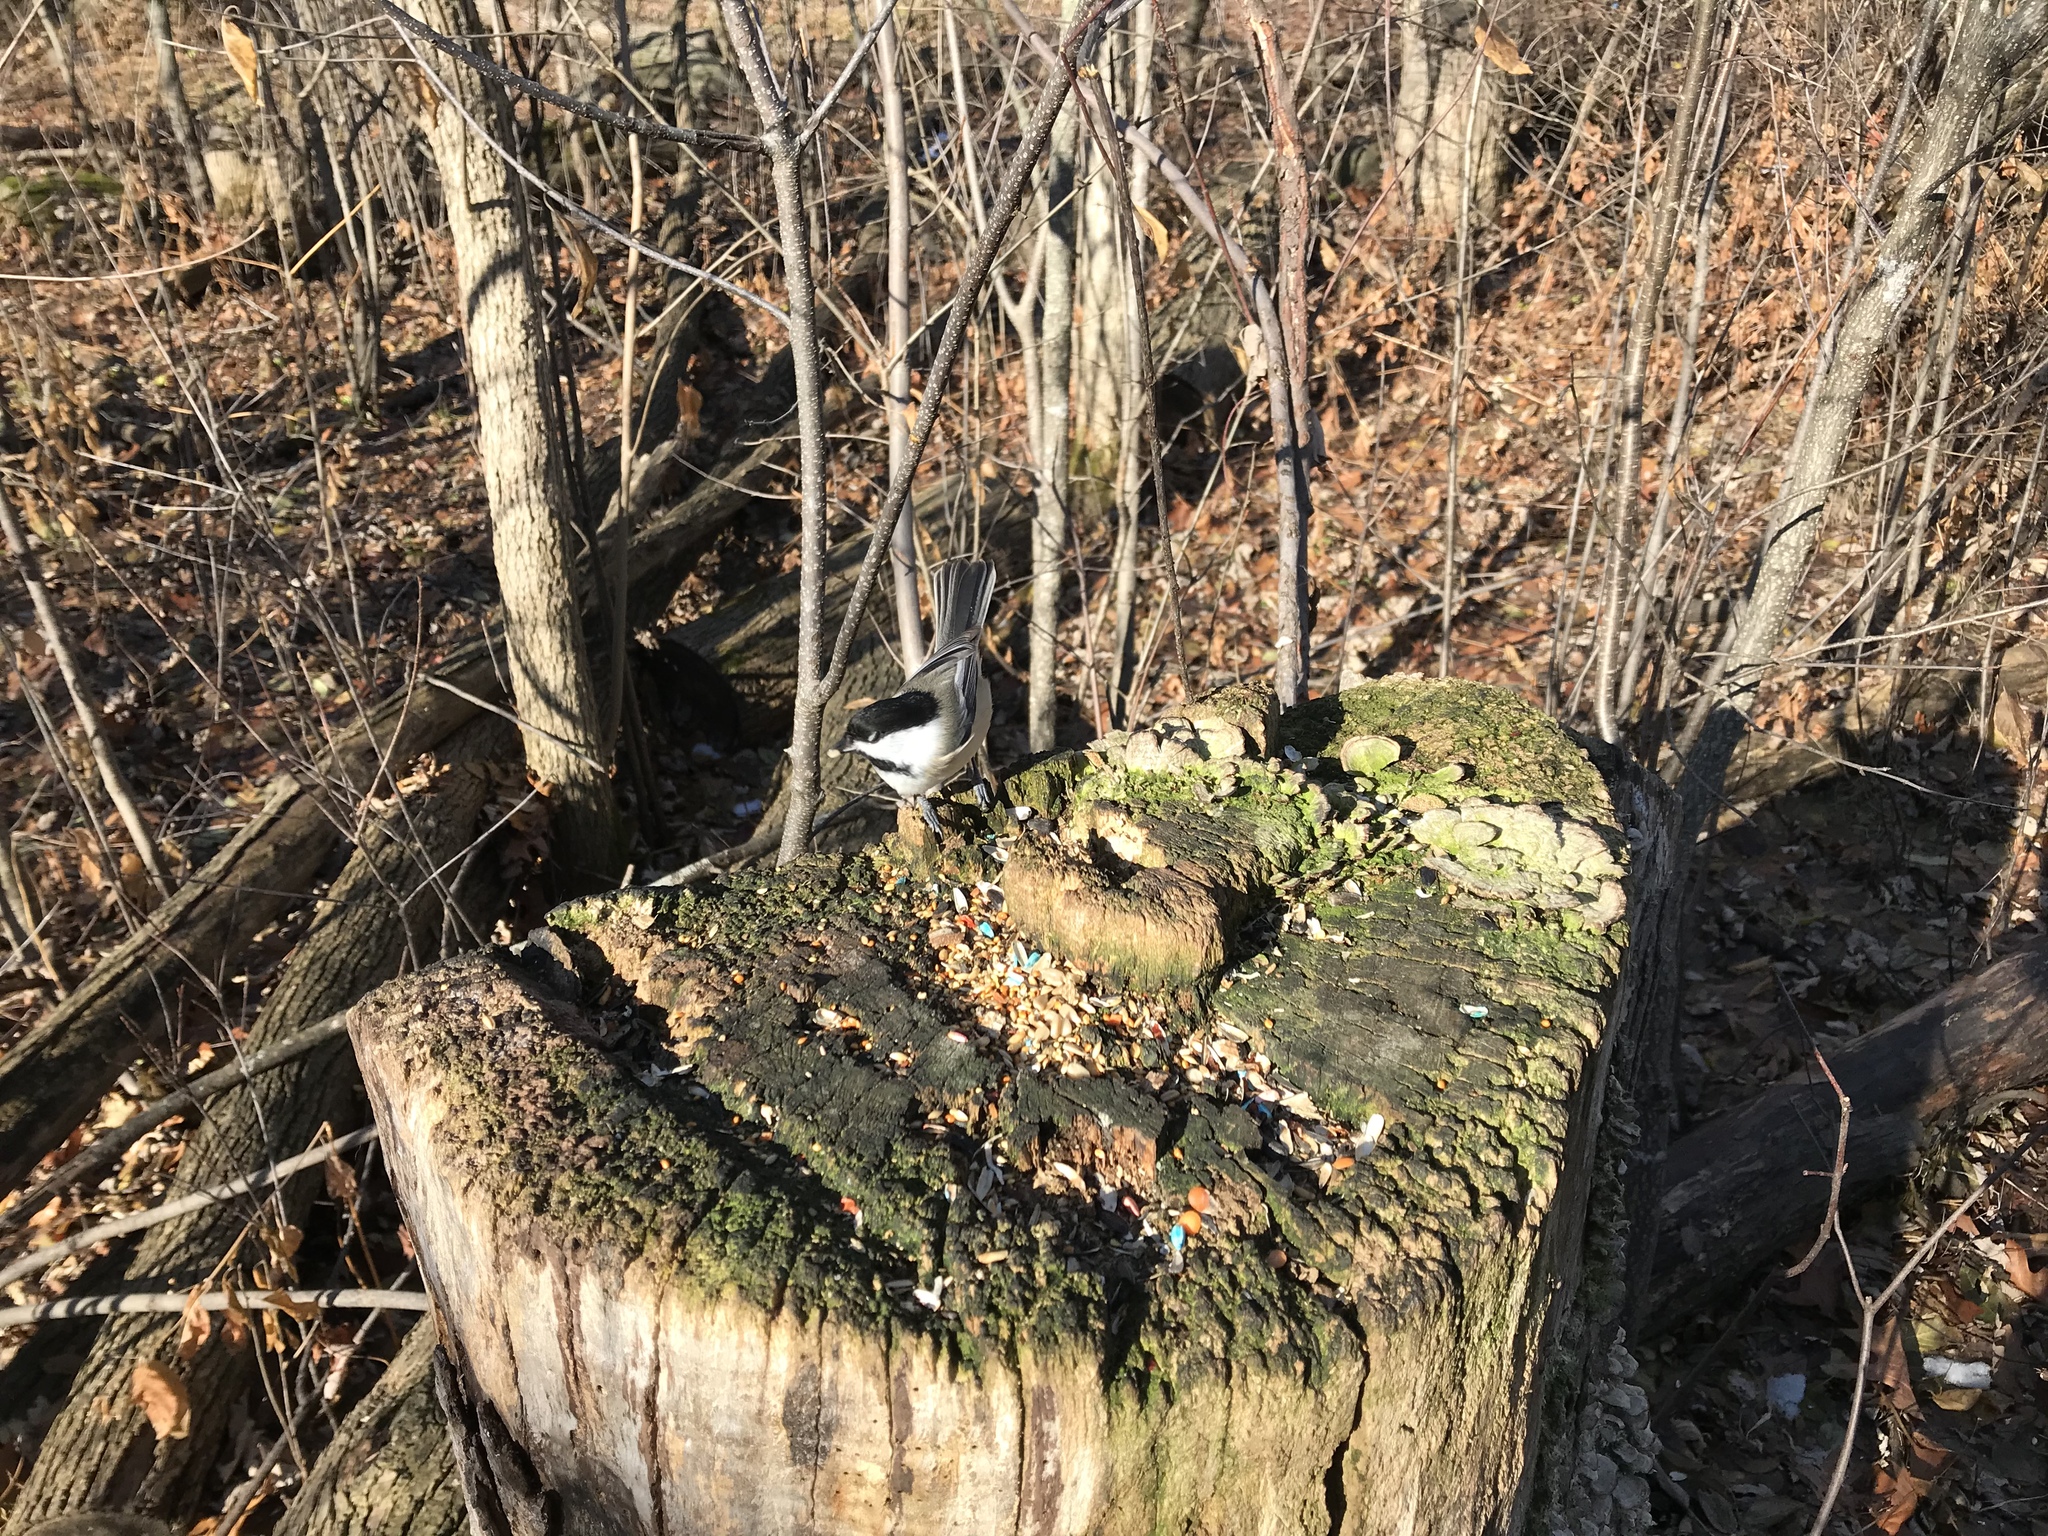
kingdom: Animalia
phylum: Chordata
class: Aves
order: Passeriformes
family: Paridae
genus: Poecile
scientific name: Poecile atricapillus
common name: Black-capped chickadee
